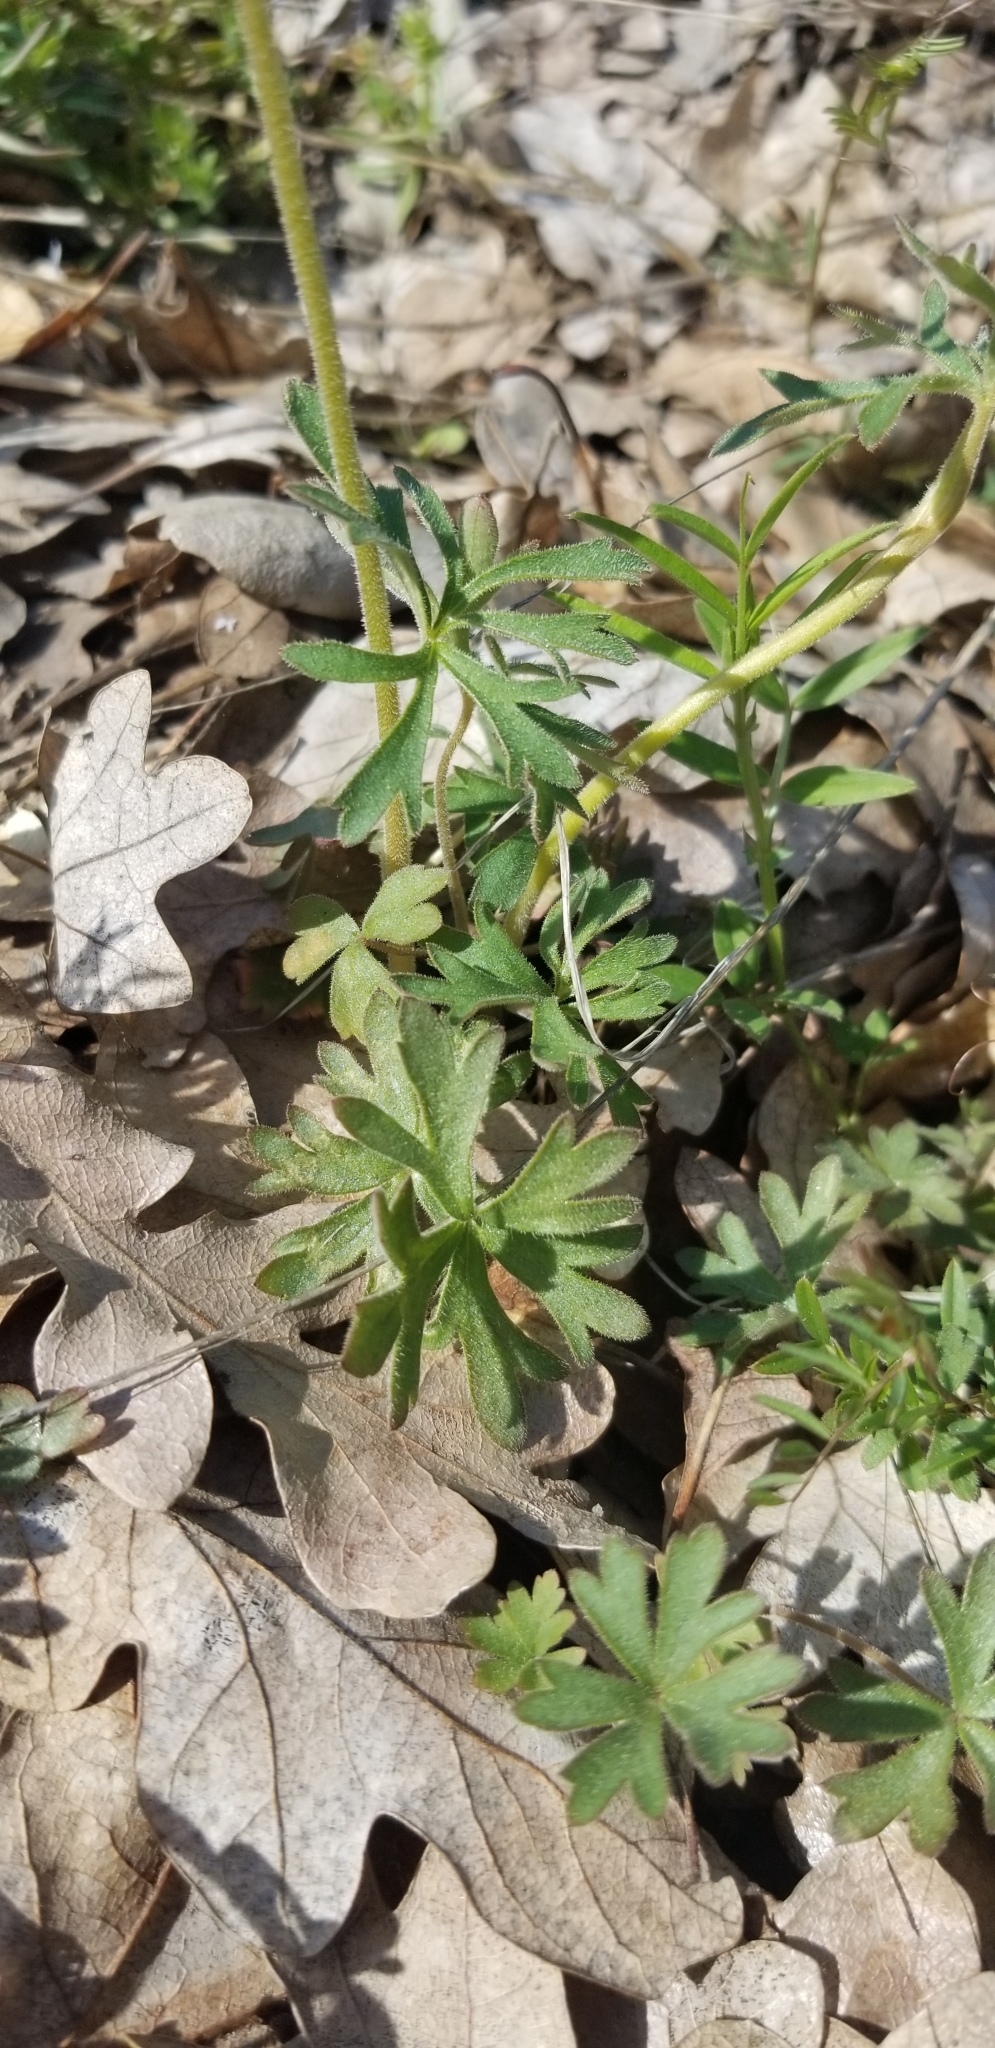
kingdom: Plantae
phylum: Tracheophyta
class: Magnoliopsida
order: Saxifragales
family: Saxifragaceae
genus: Lithophragma
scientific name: Lithophragma parviflorum
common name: Small-flowered fringe-cup
